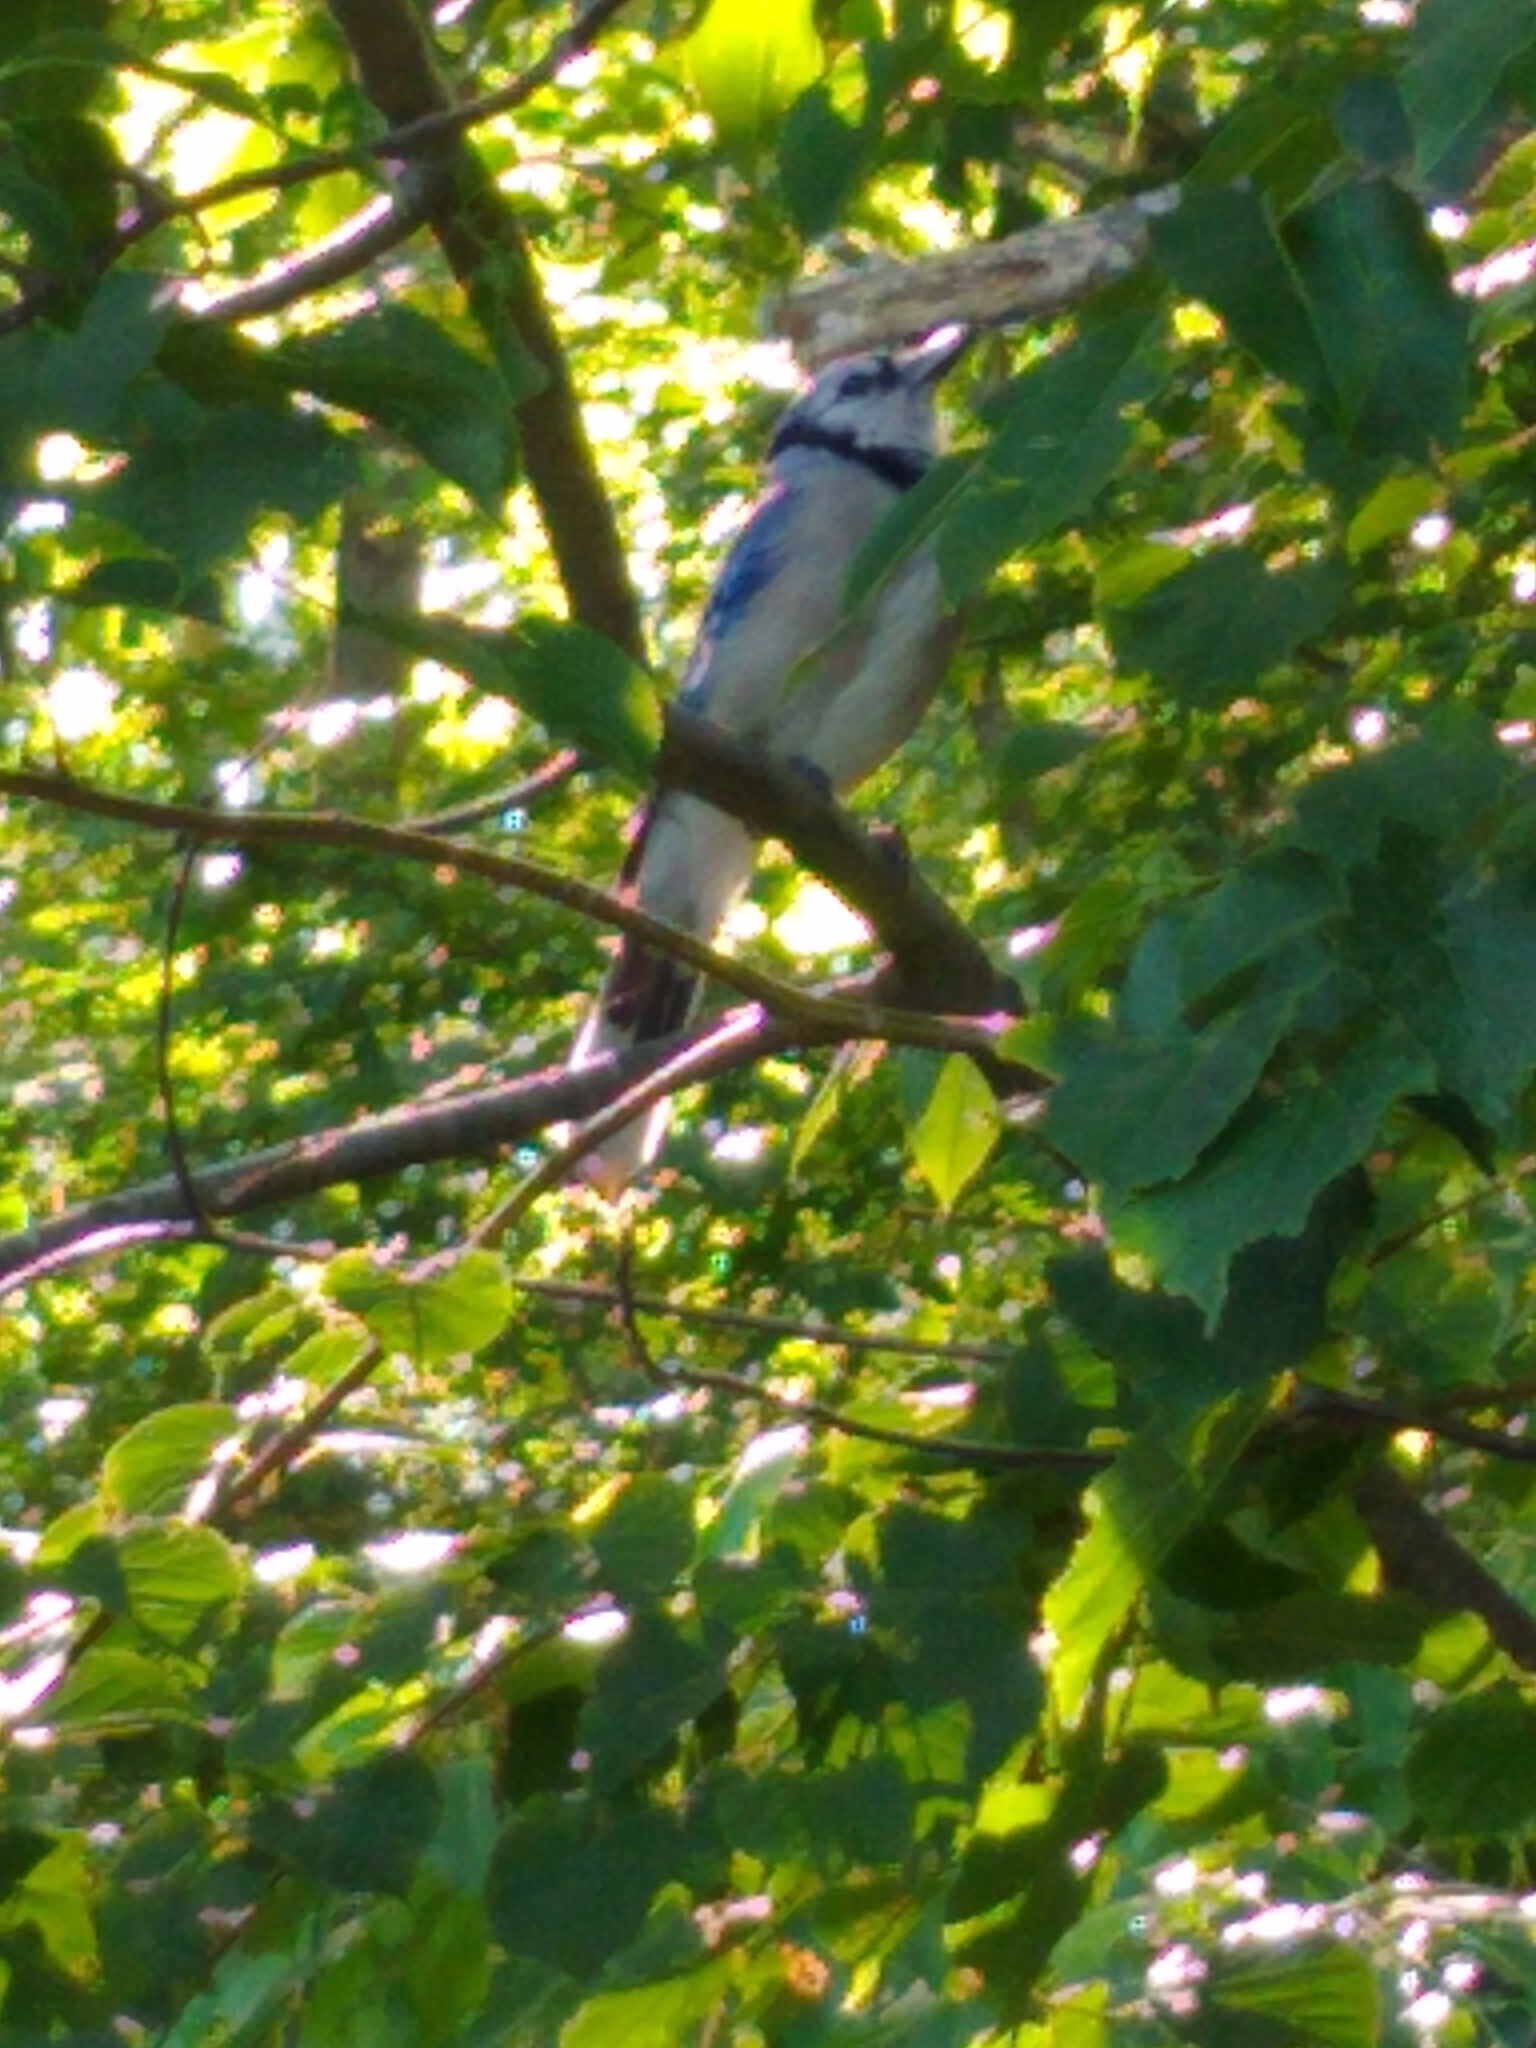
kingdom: Animalia
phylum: Chordata
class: Aves
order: Passeriformes
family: Corvidae
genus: Cyanocitta
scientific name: Cyanocitta cristata
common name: Blue jay
